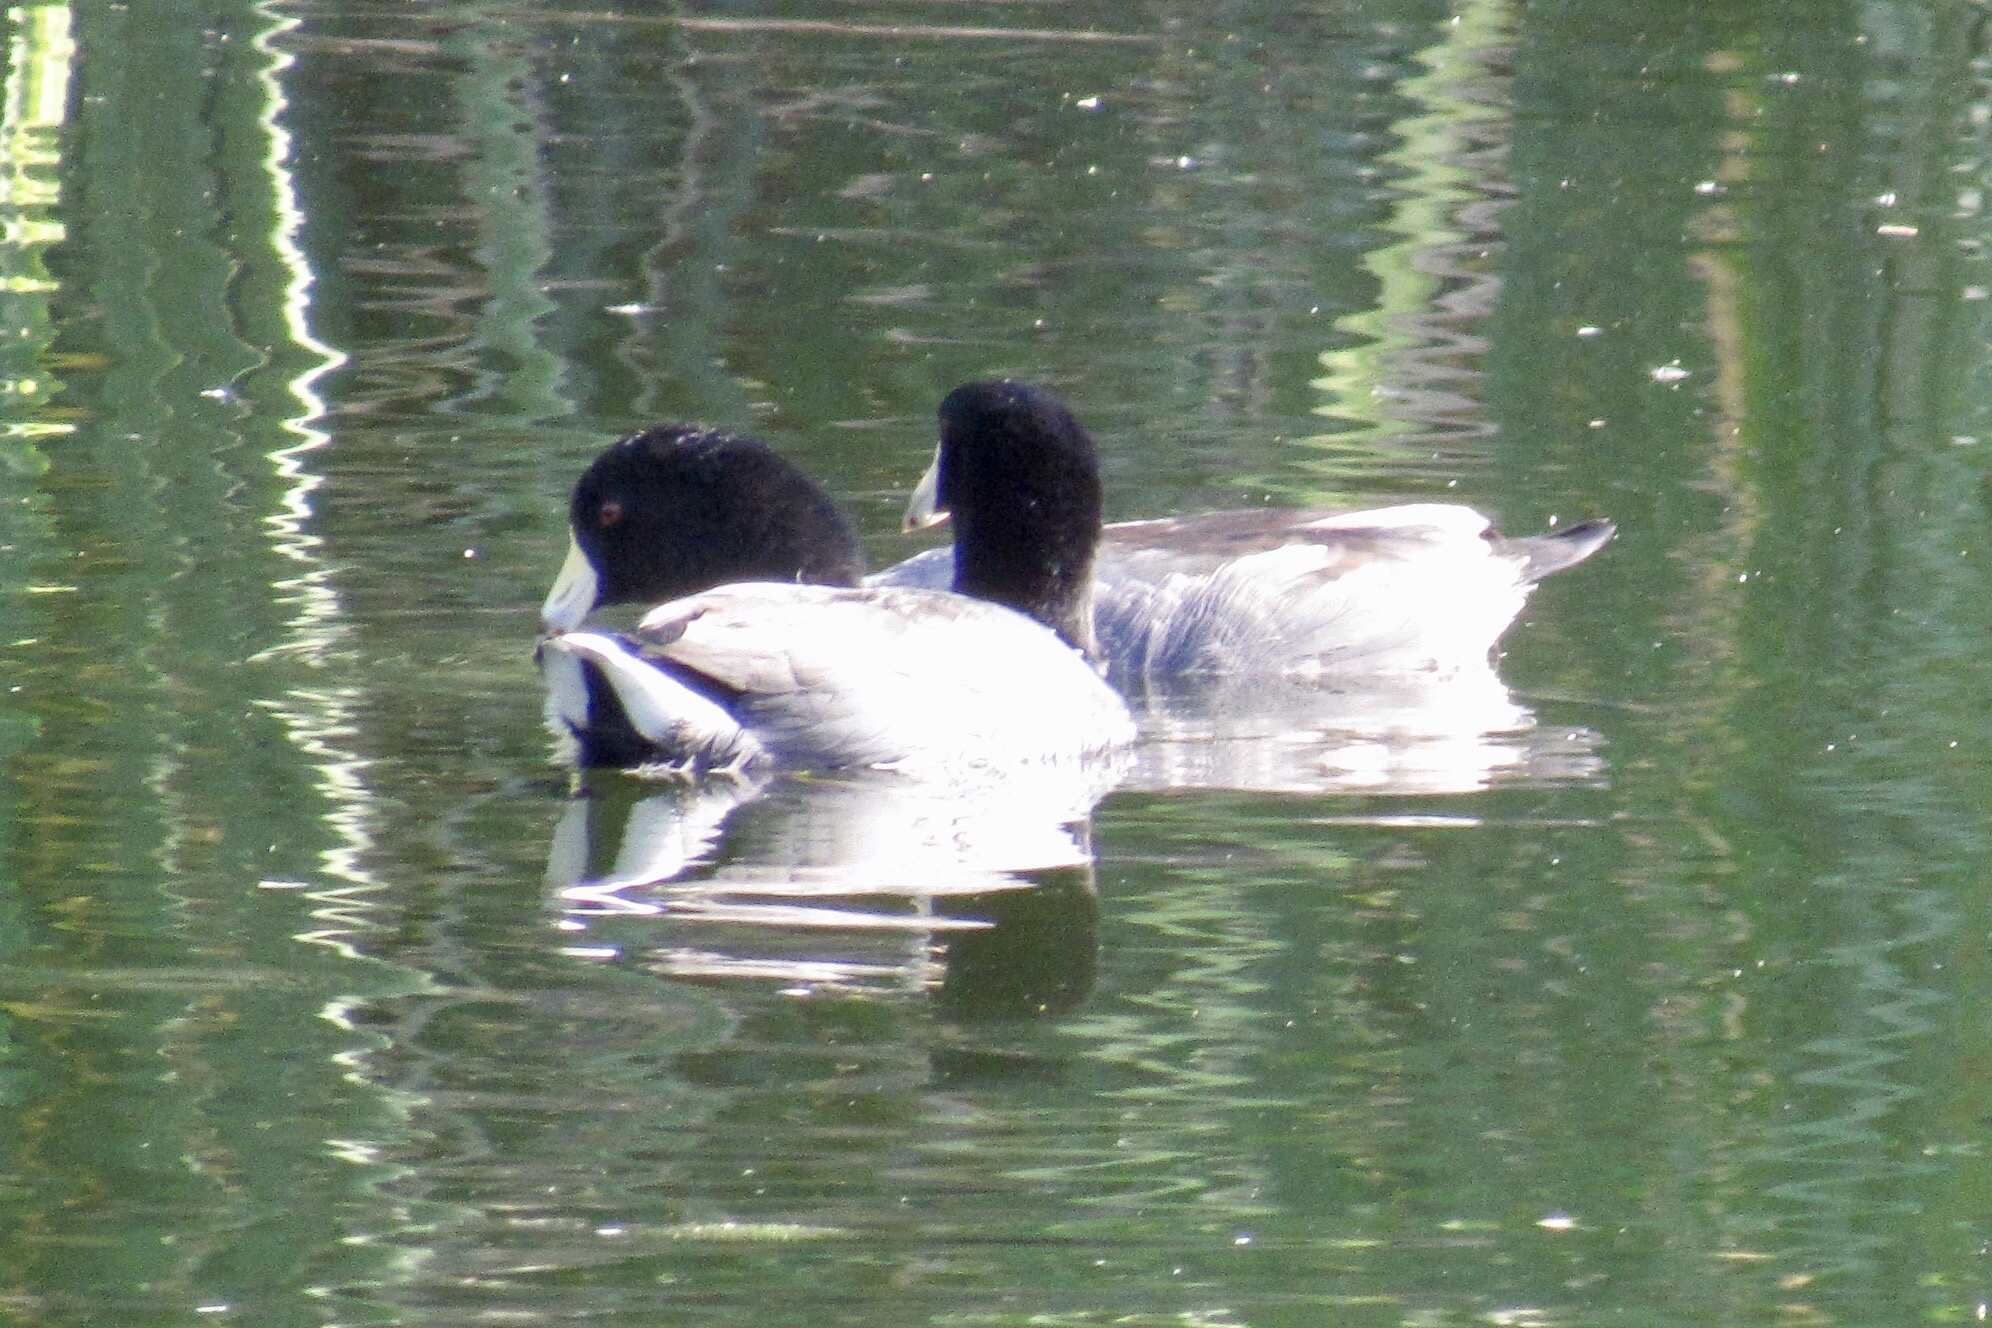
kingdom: Animalia
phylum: Chordata
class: Aves
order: Gruiformes
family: Rallidae
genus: Fulica
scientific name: Fulica americana
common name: American coot
